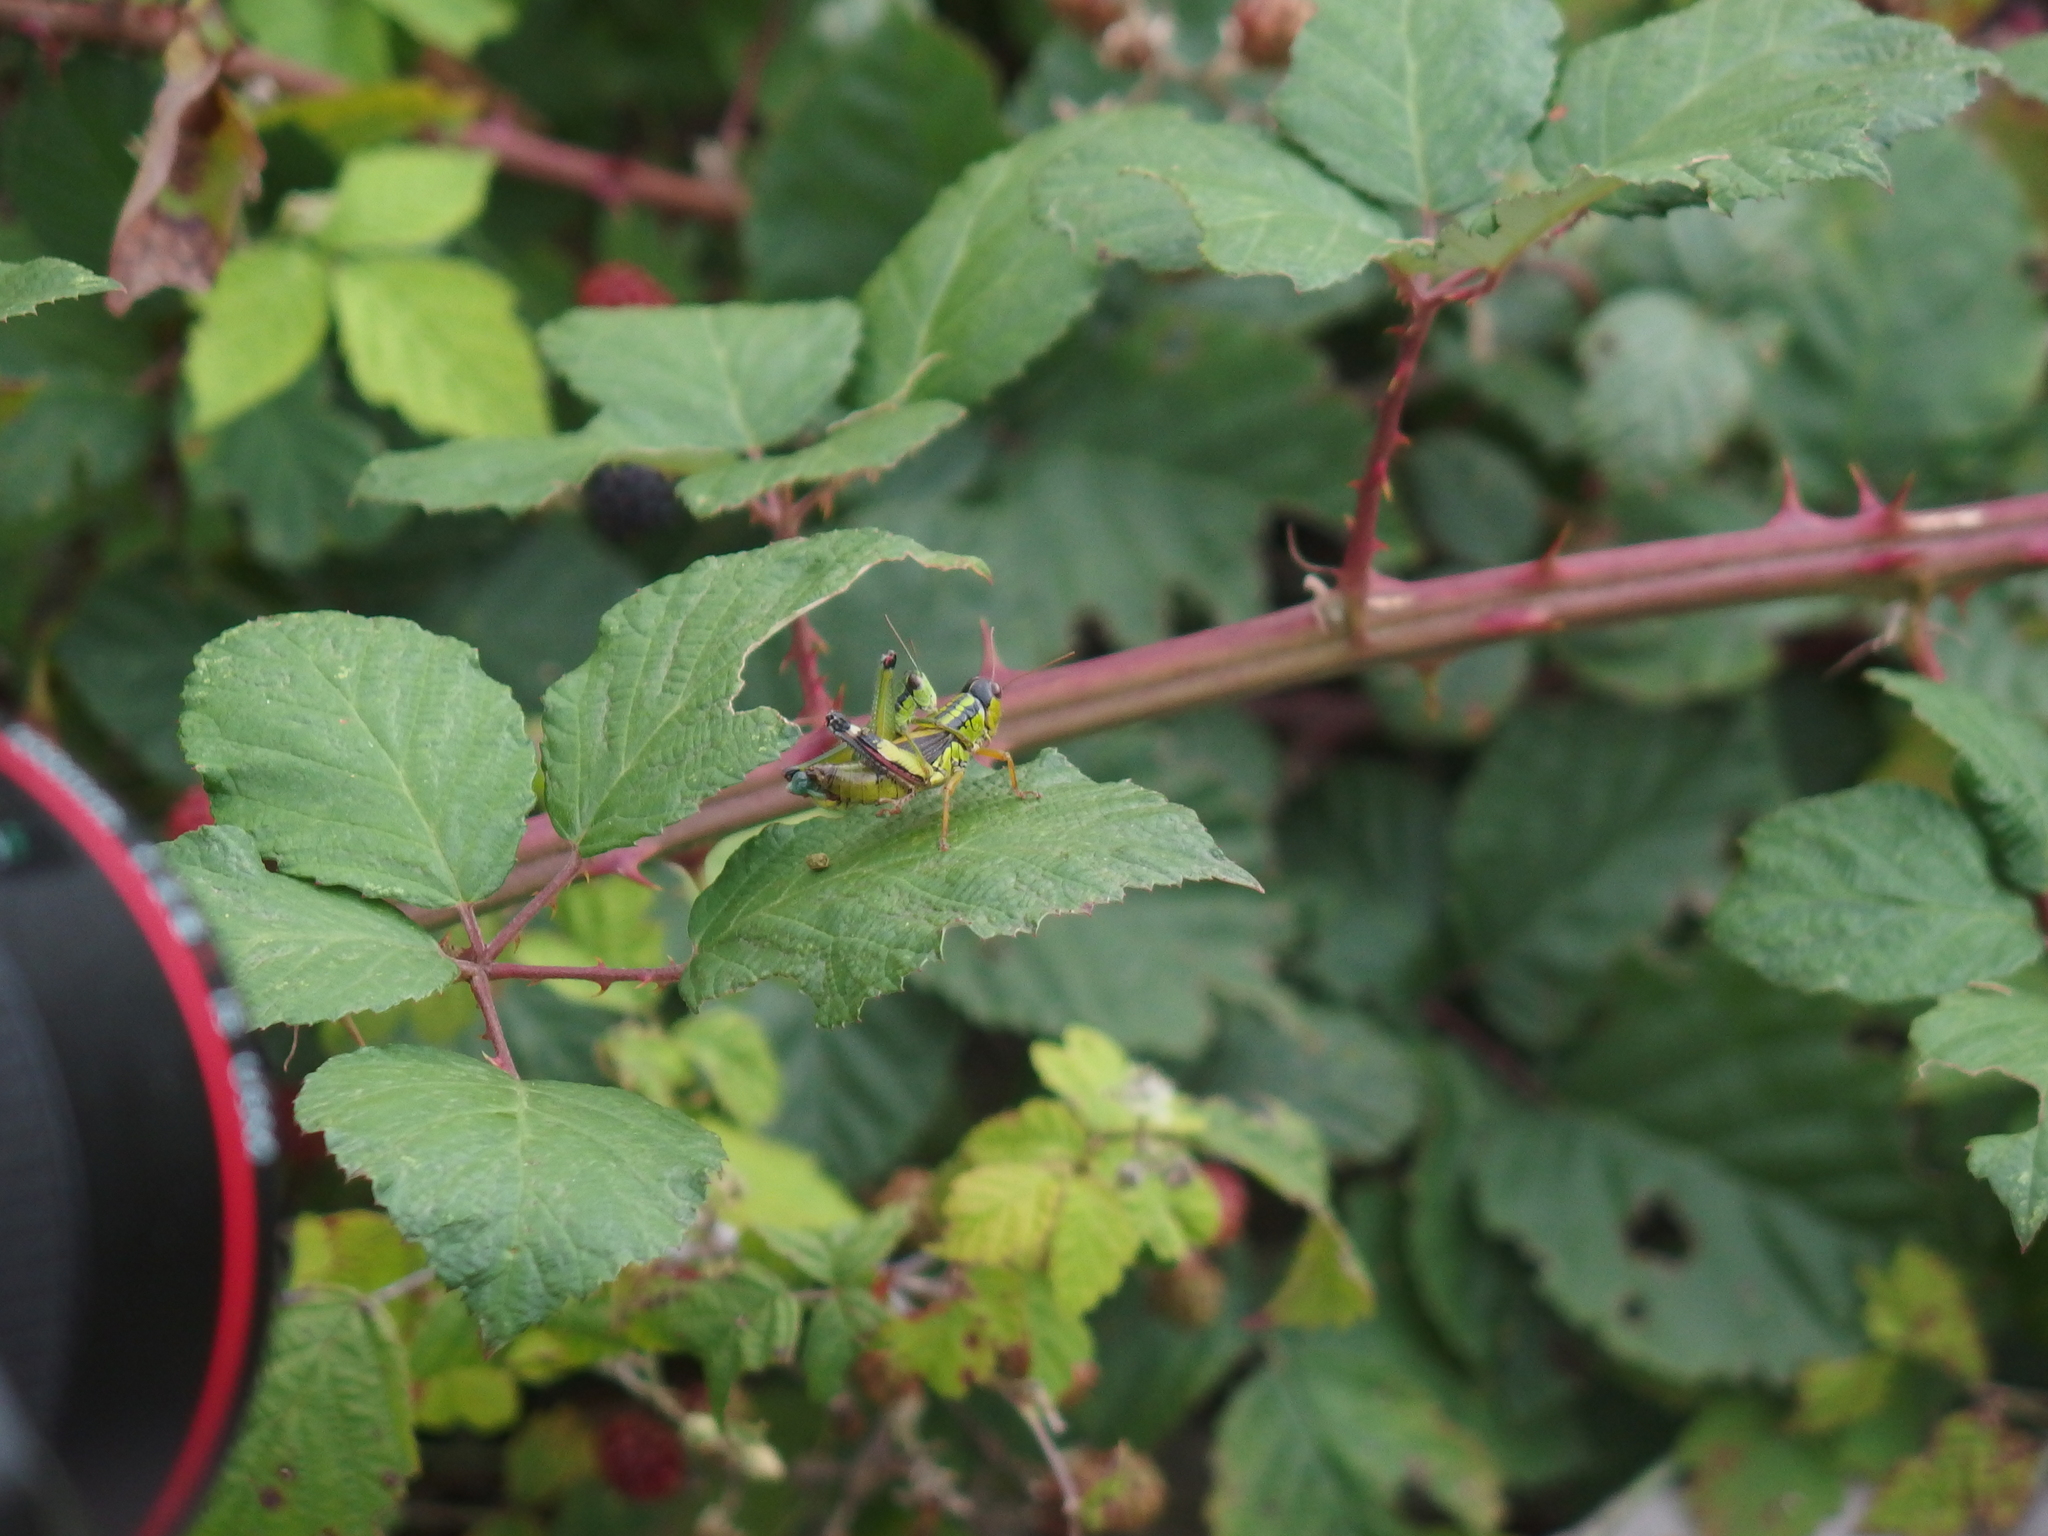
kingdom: Animalia
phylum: Arthropoda
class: Insecta
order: Orthoptera
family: Acrididae
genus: Nadigella
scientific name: Nadigella formosanta
